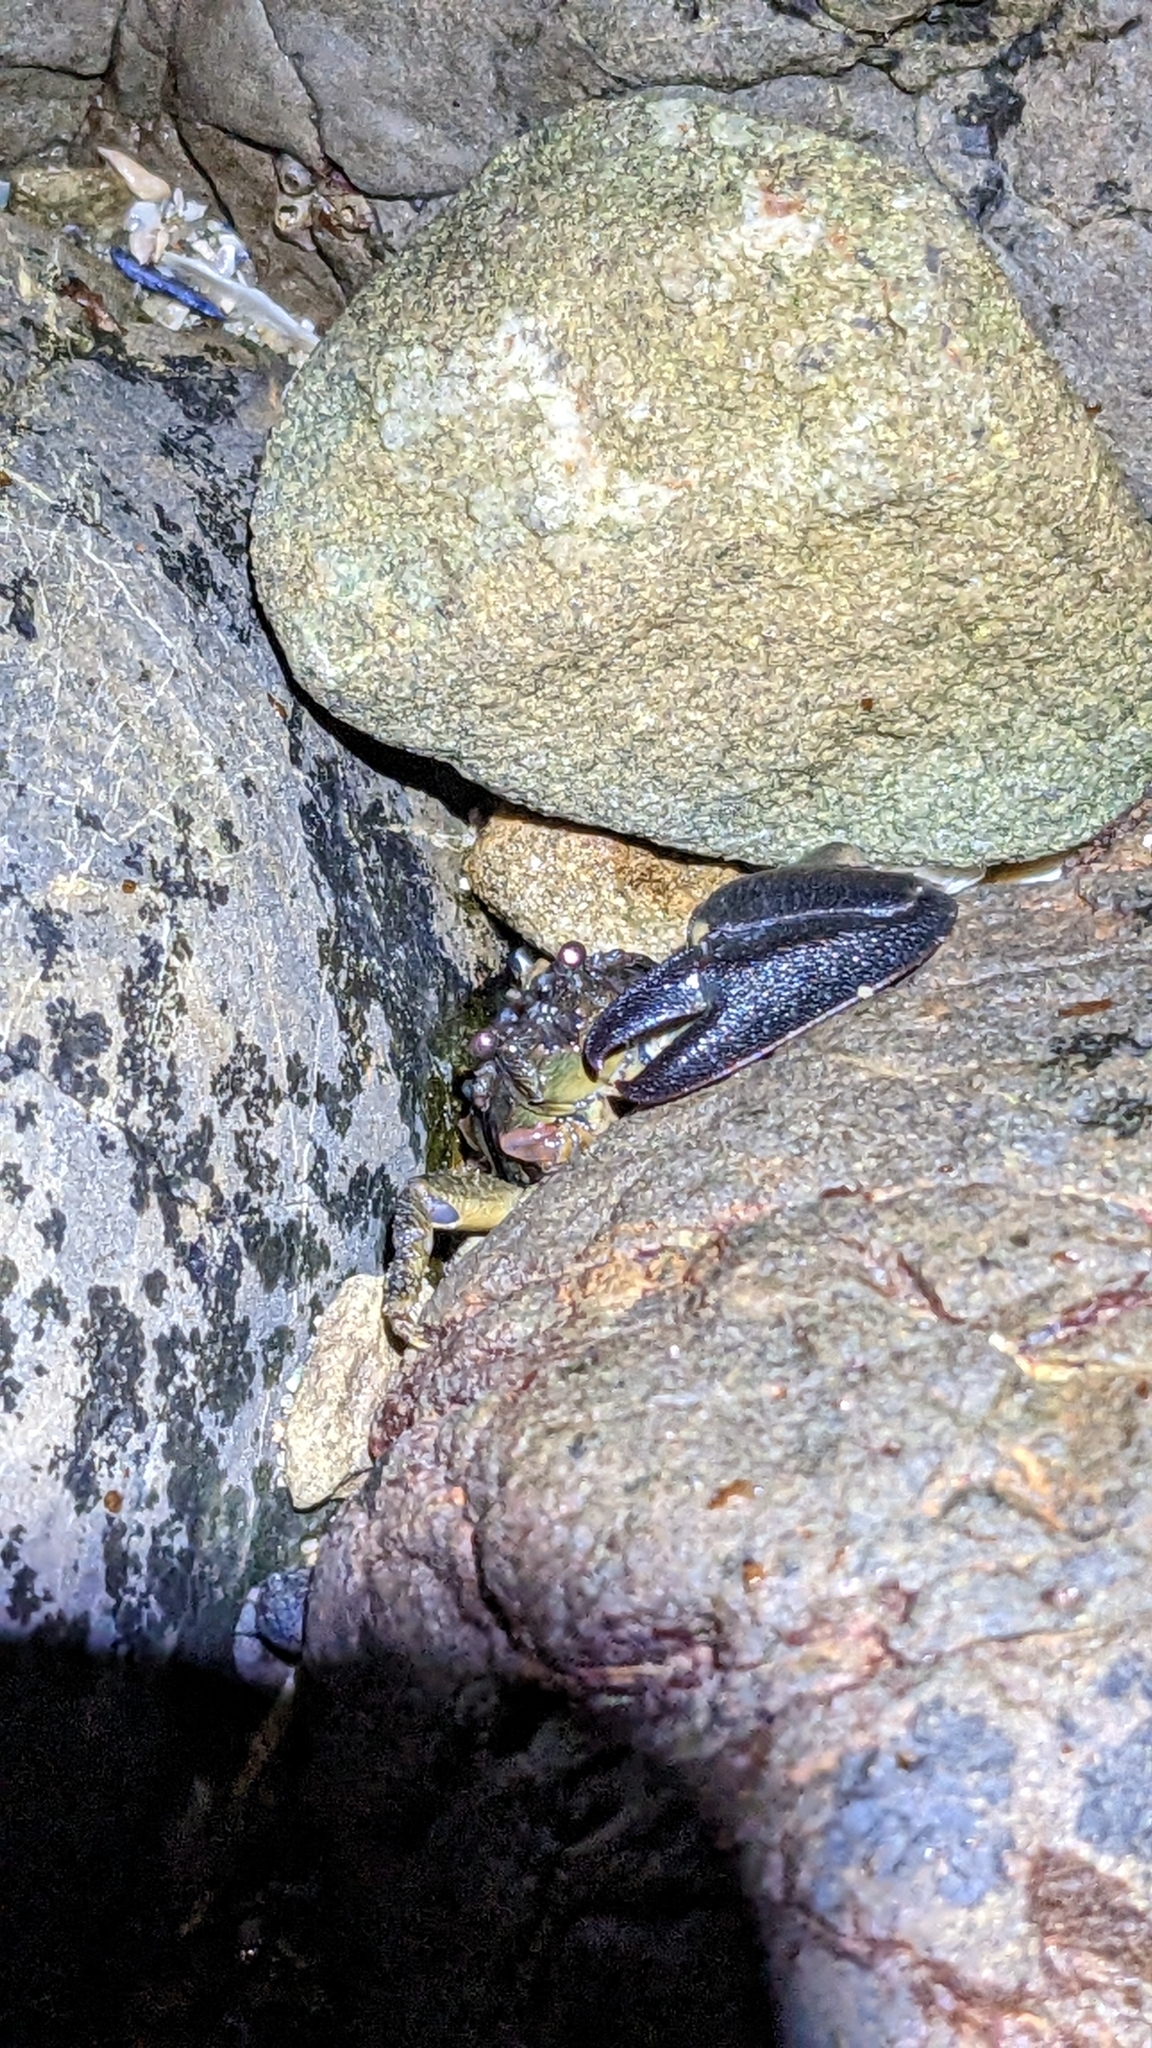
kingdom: Animalia
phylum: Arthropoda
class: Malacostraca
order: Decapoda
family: Porcellanidae
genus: Petrolisthes
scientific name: Petrolisthes elongatus
